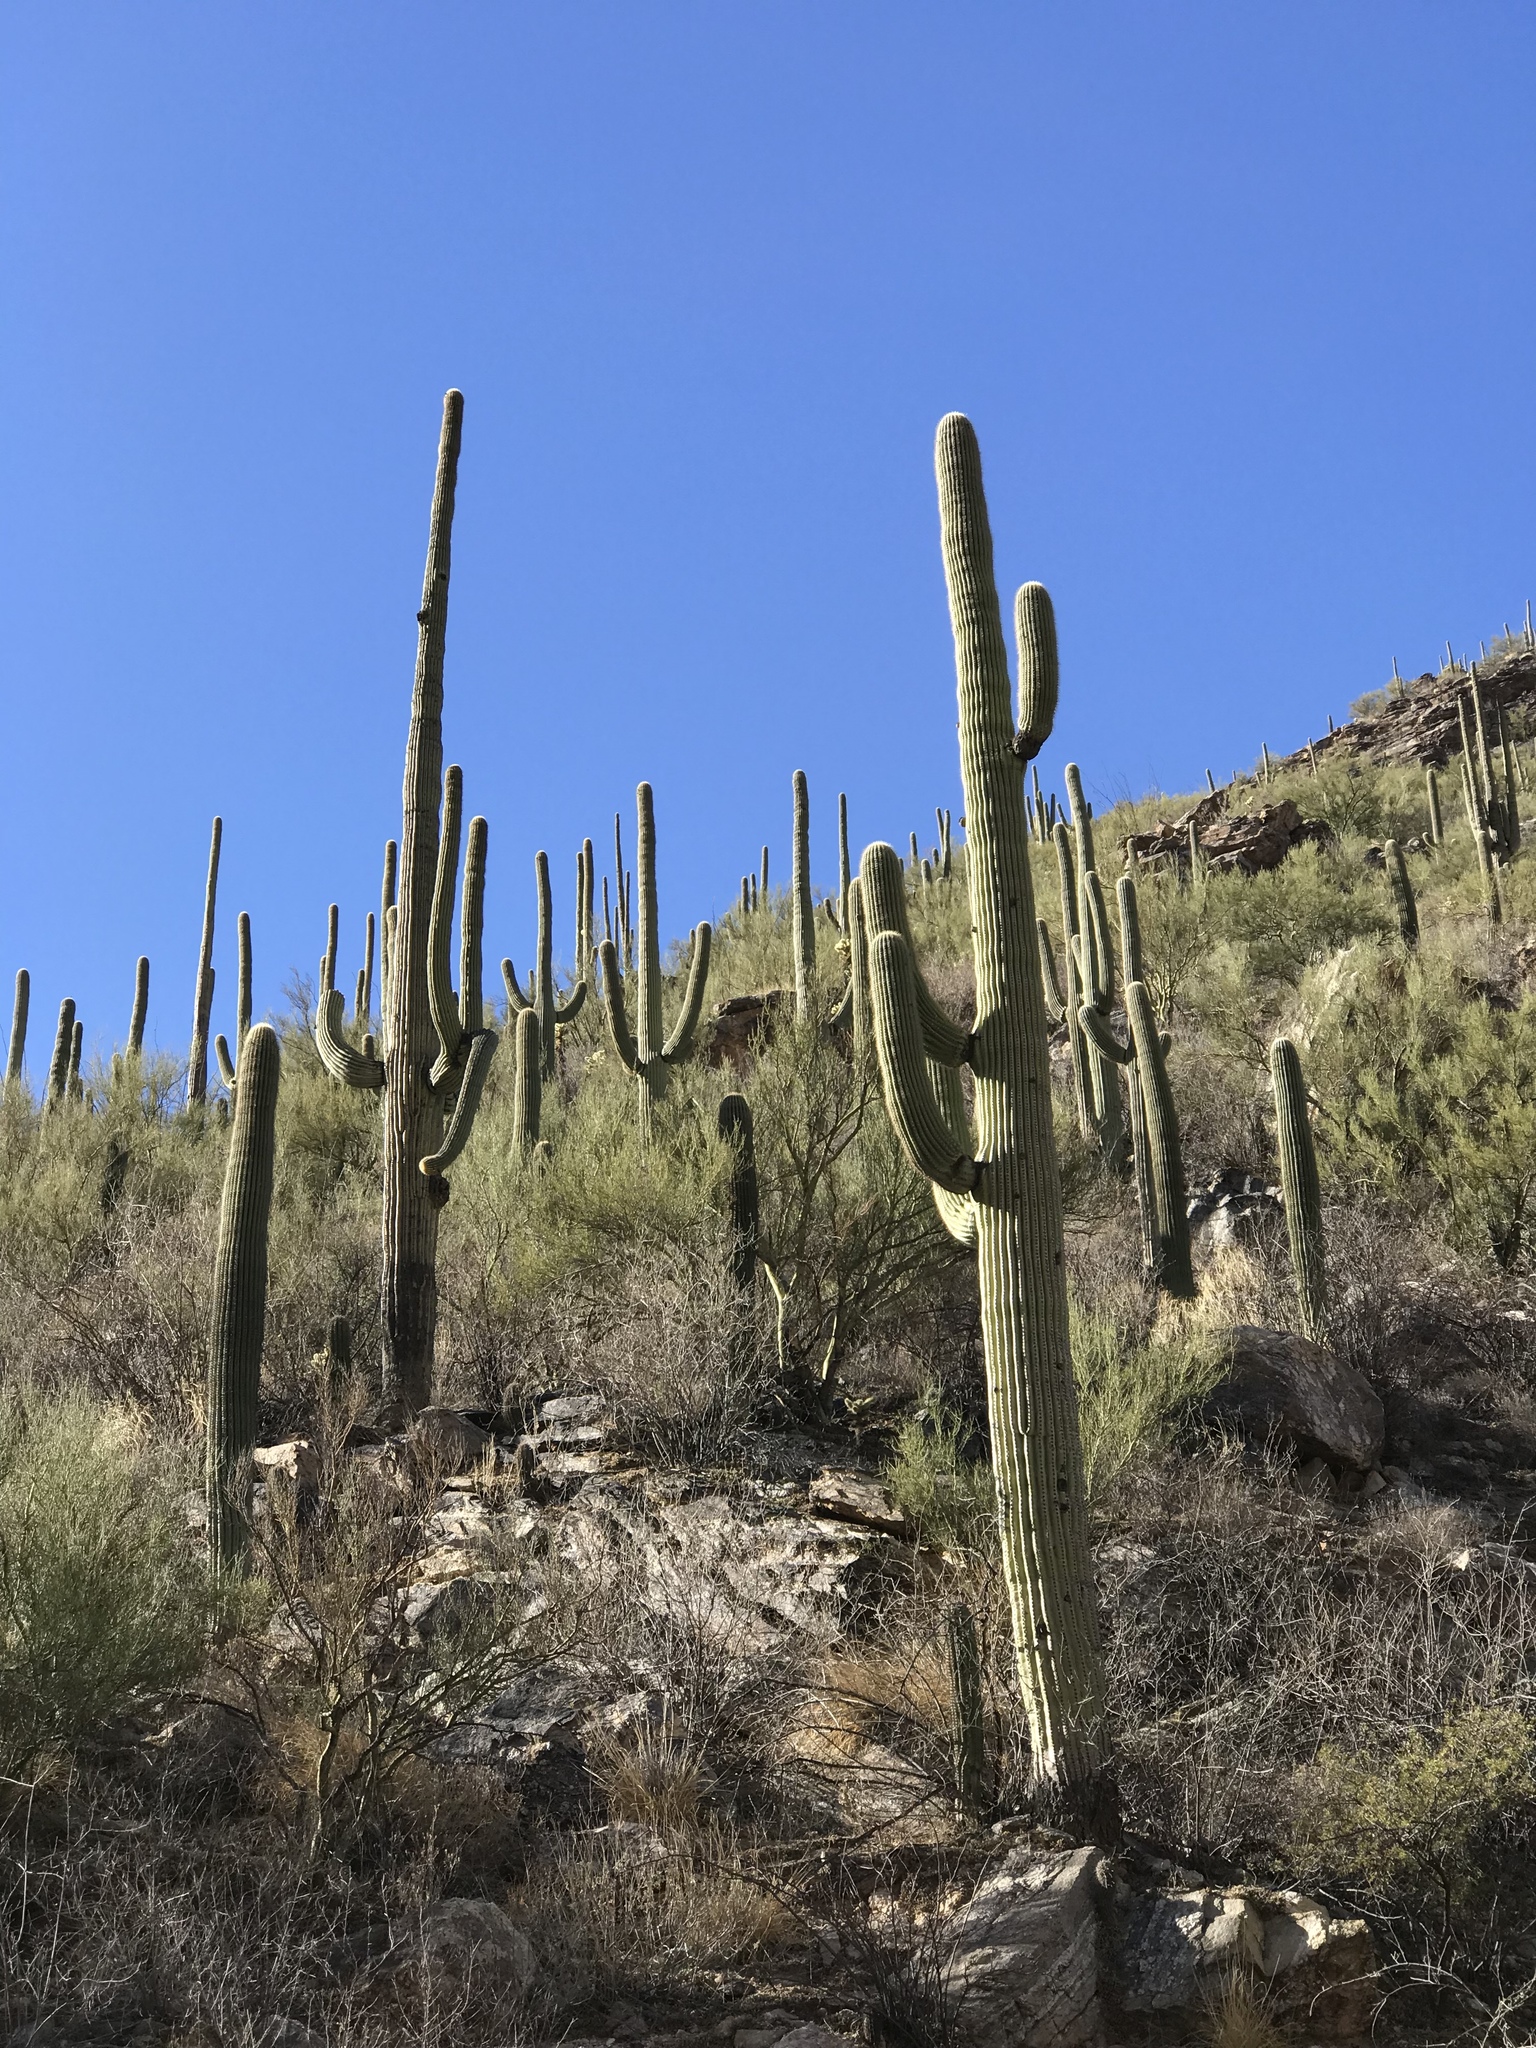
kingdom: Plantae
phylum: Tracheophyta
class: Magnoliopsida
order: Caryophyllales
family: Cactaceae
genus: Carnegiea
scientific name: Carnegiea gigantea
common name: Saguaro
